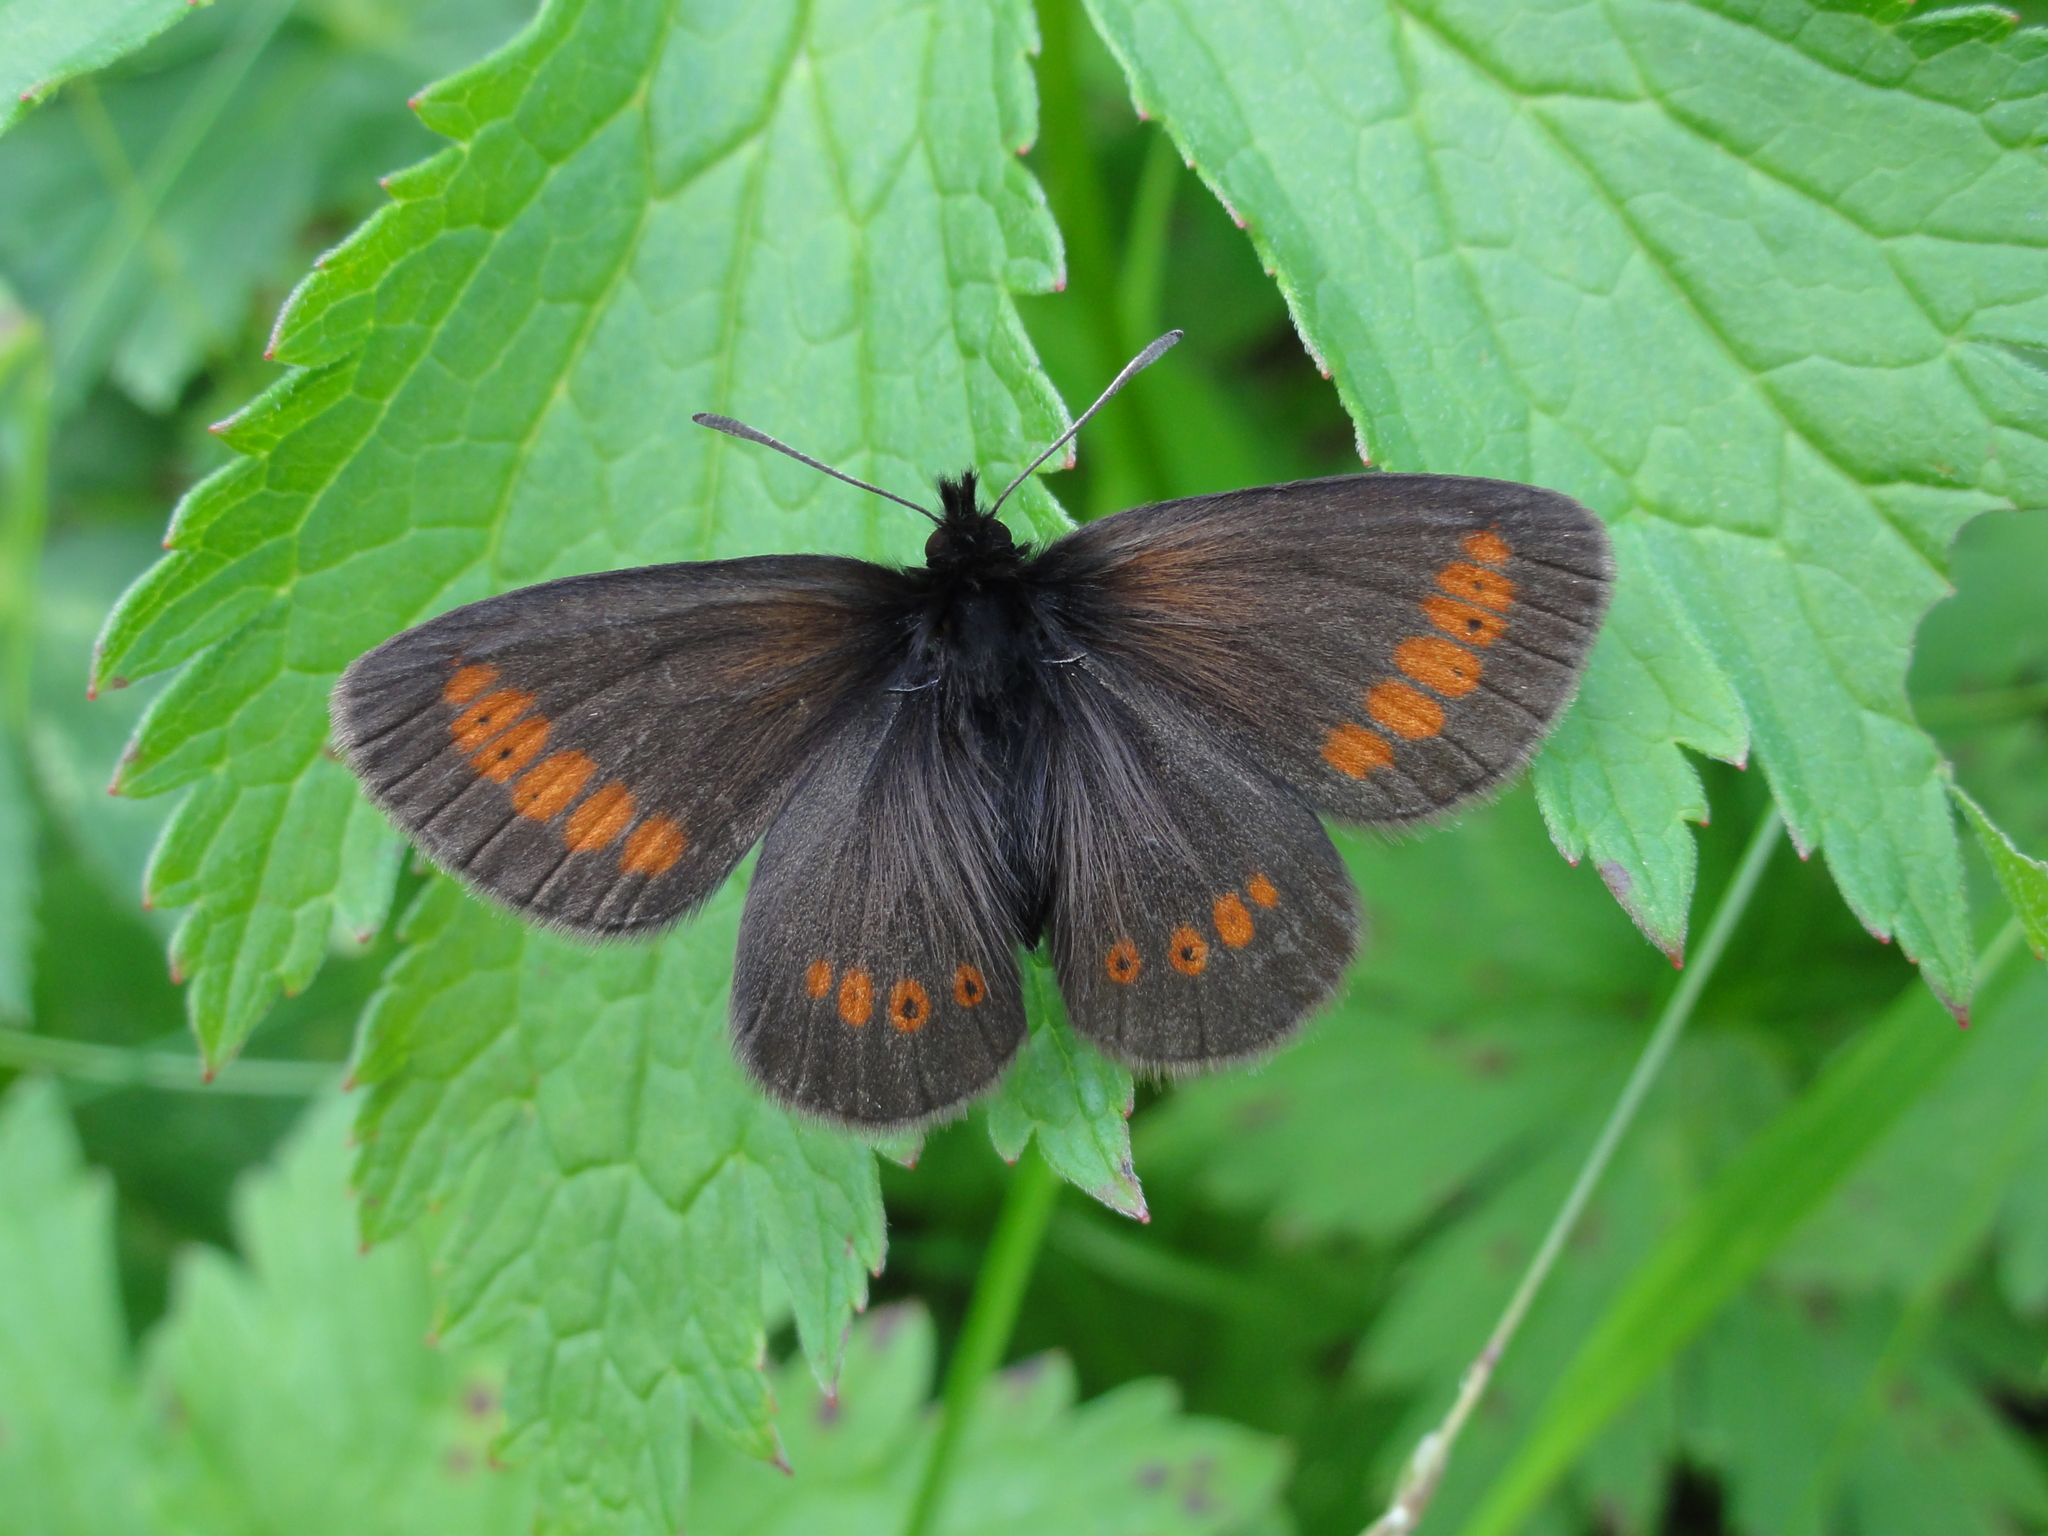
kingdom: Animalia
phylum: Arthropoda
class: Insecta
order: Lepidoptera
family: Nymphalidae
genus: Erebia
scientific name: Erebia melampus
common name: Lesser mountain ringlet
